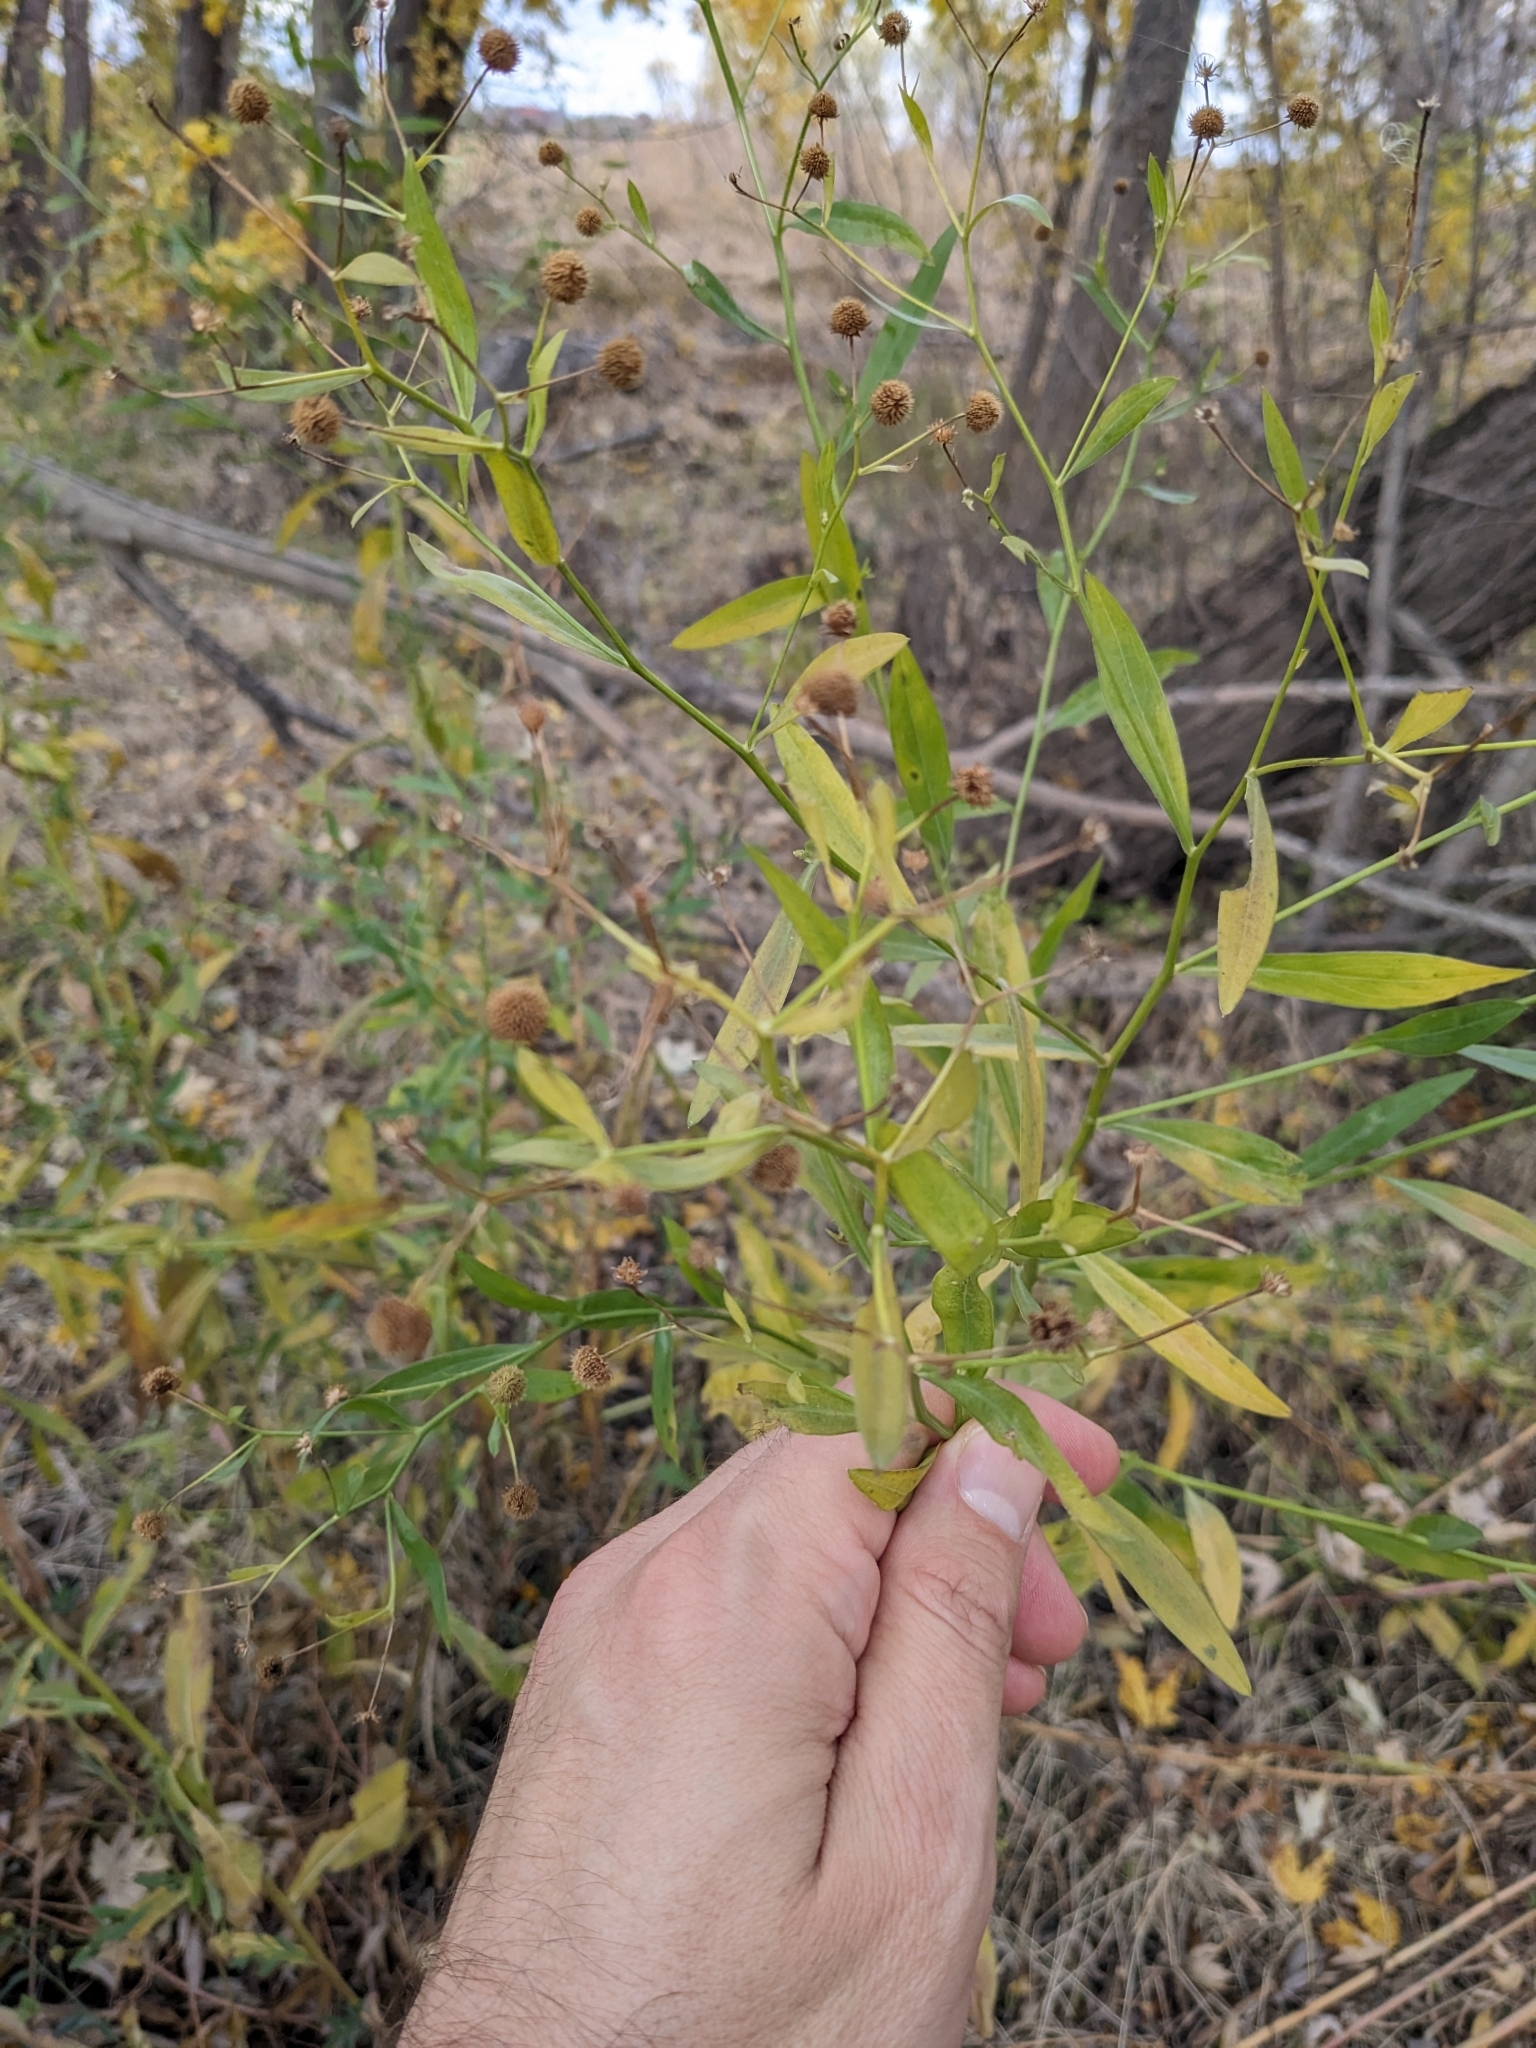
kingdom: Plantae
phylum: Tracheophyta
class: Magnoliopsida
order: Asterales
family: Asteraceae
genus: Boltonia
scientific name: Boltonia asteroides
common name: False chamomile
